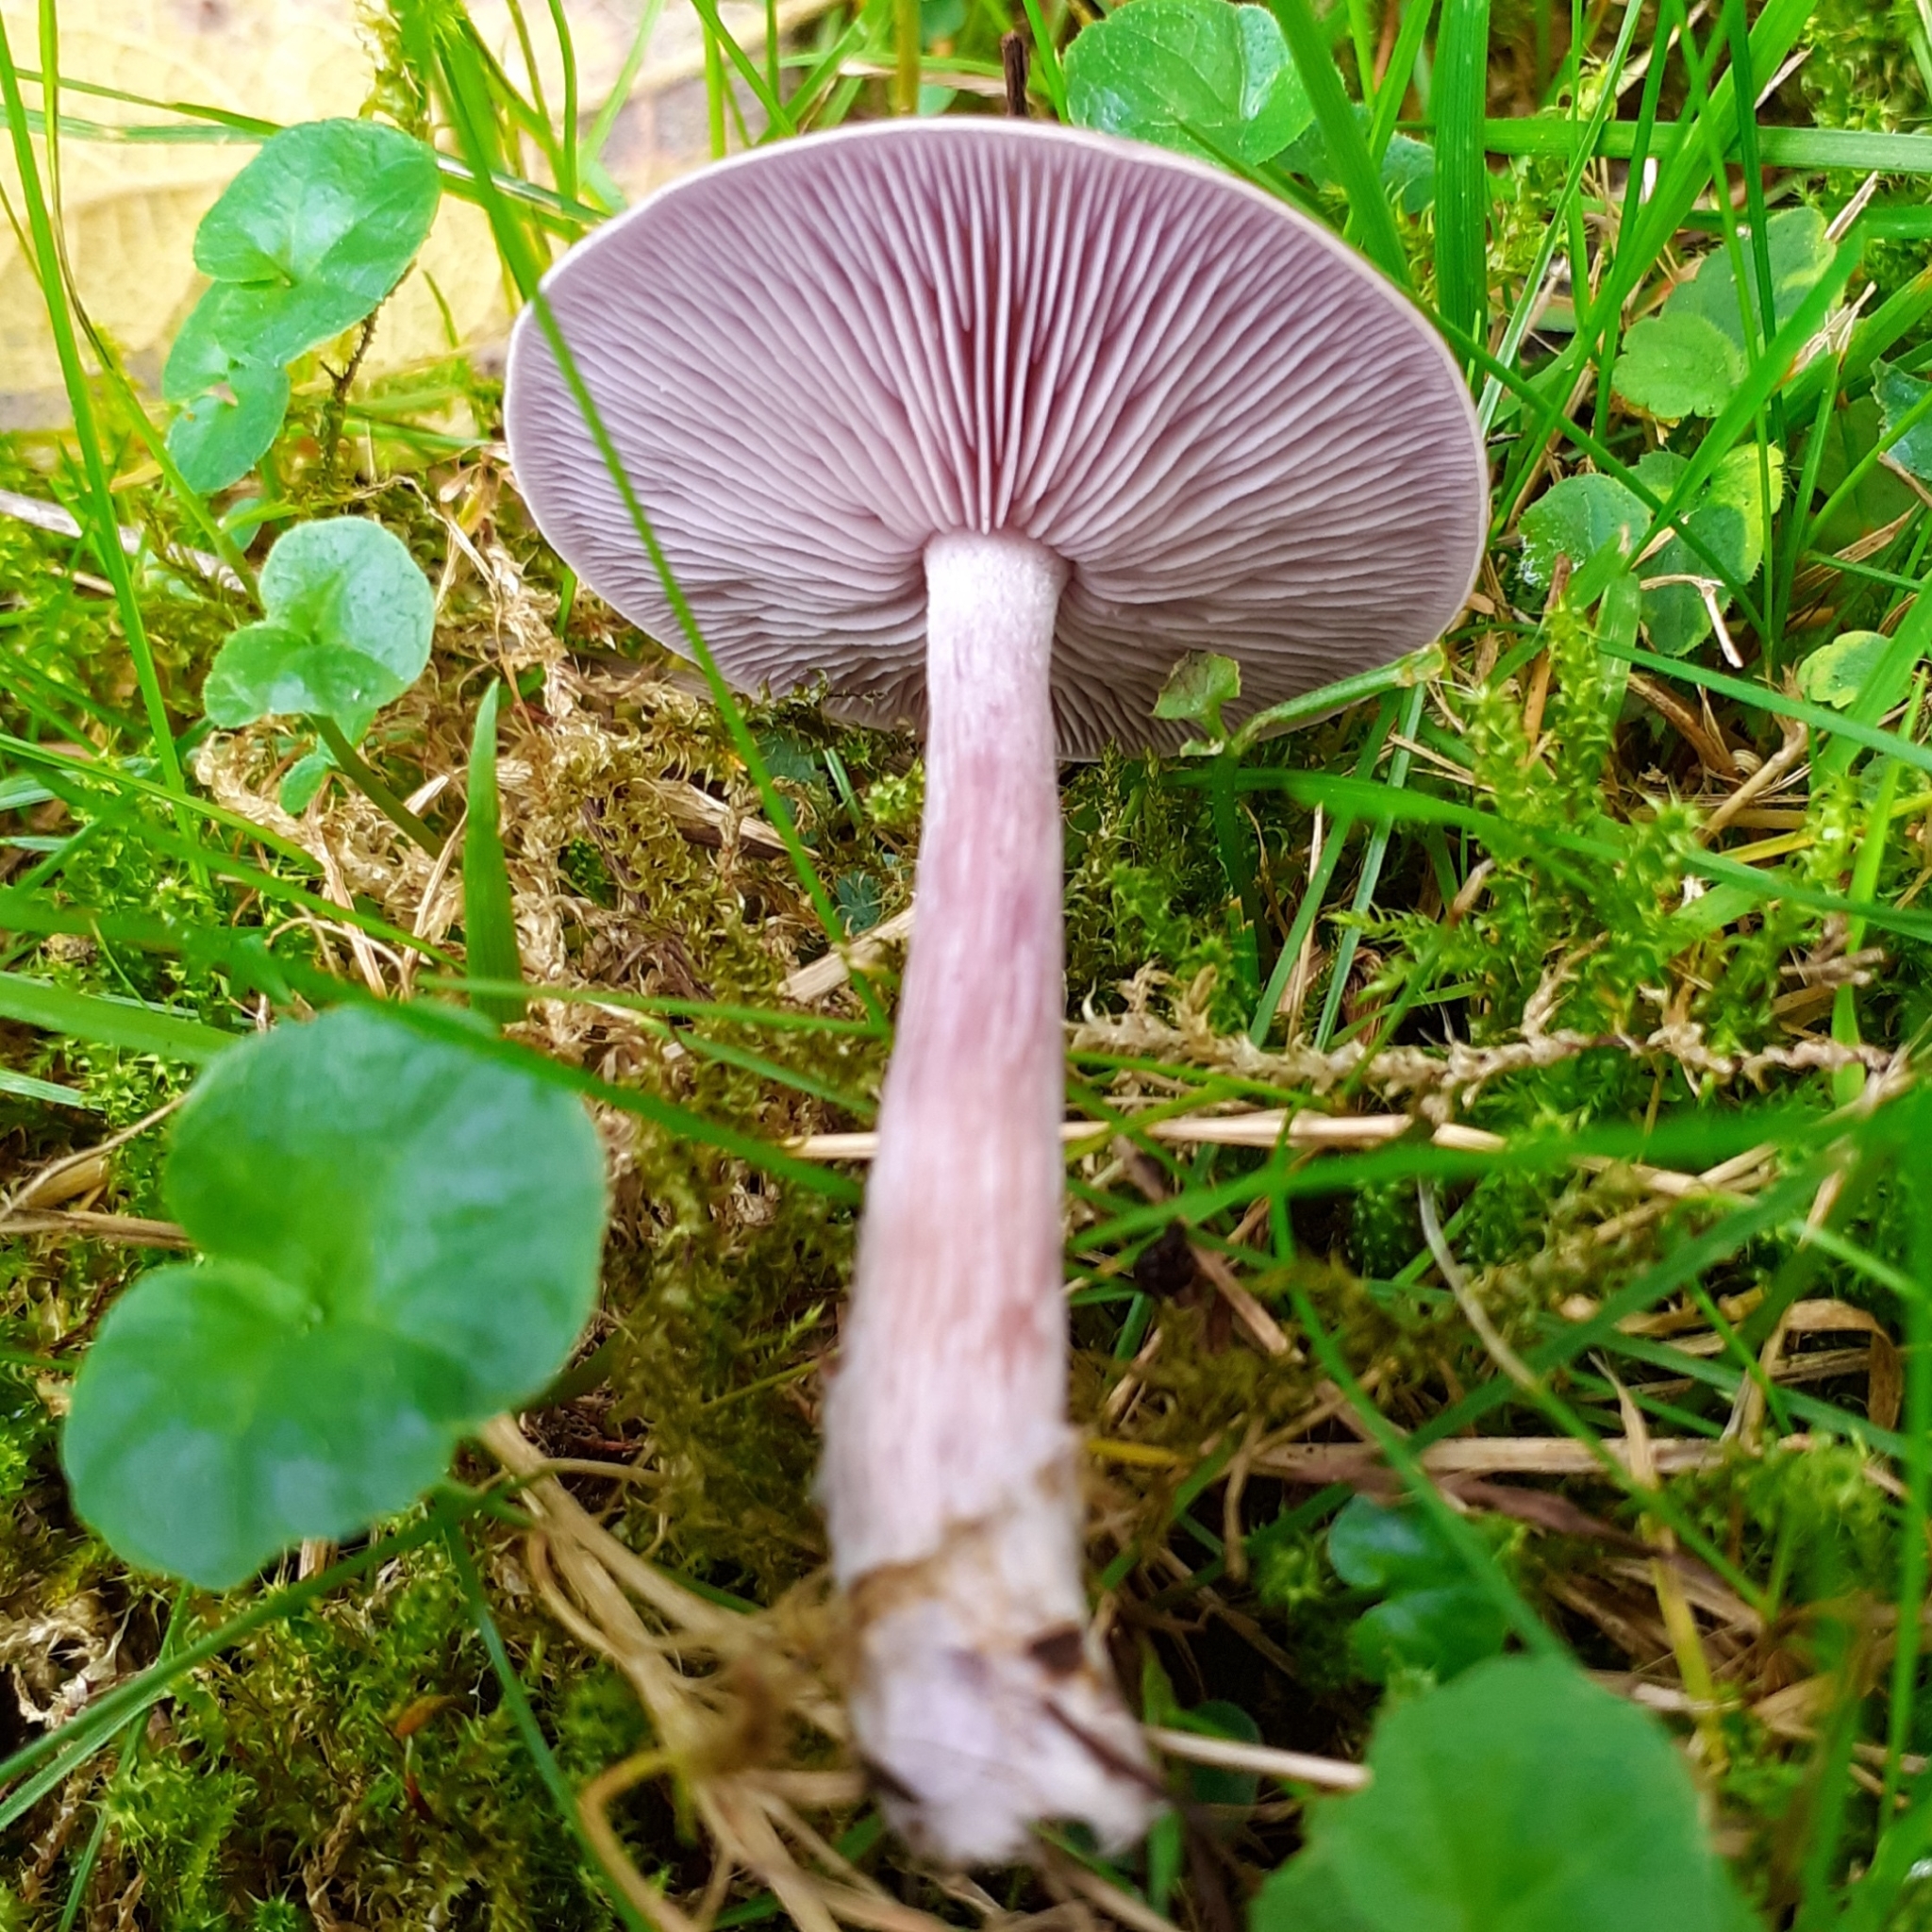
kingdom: Fungi
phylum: Basidiomycota
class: Agaricomycetes
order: Agaricales
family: Tricholomataceae
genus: Collybia
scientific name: Collybia
